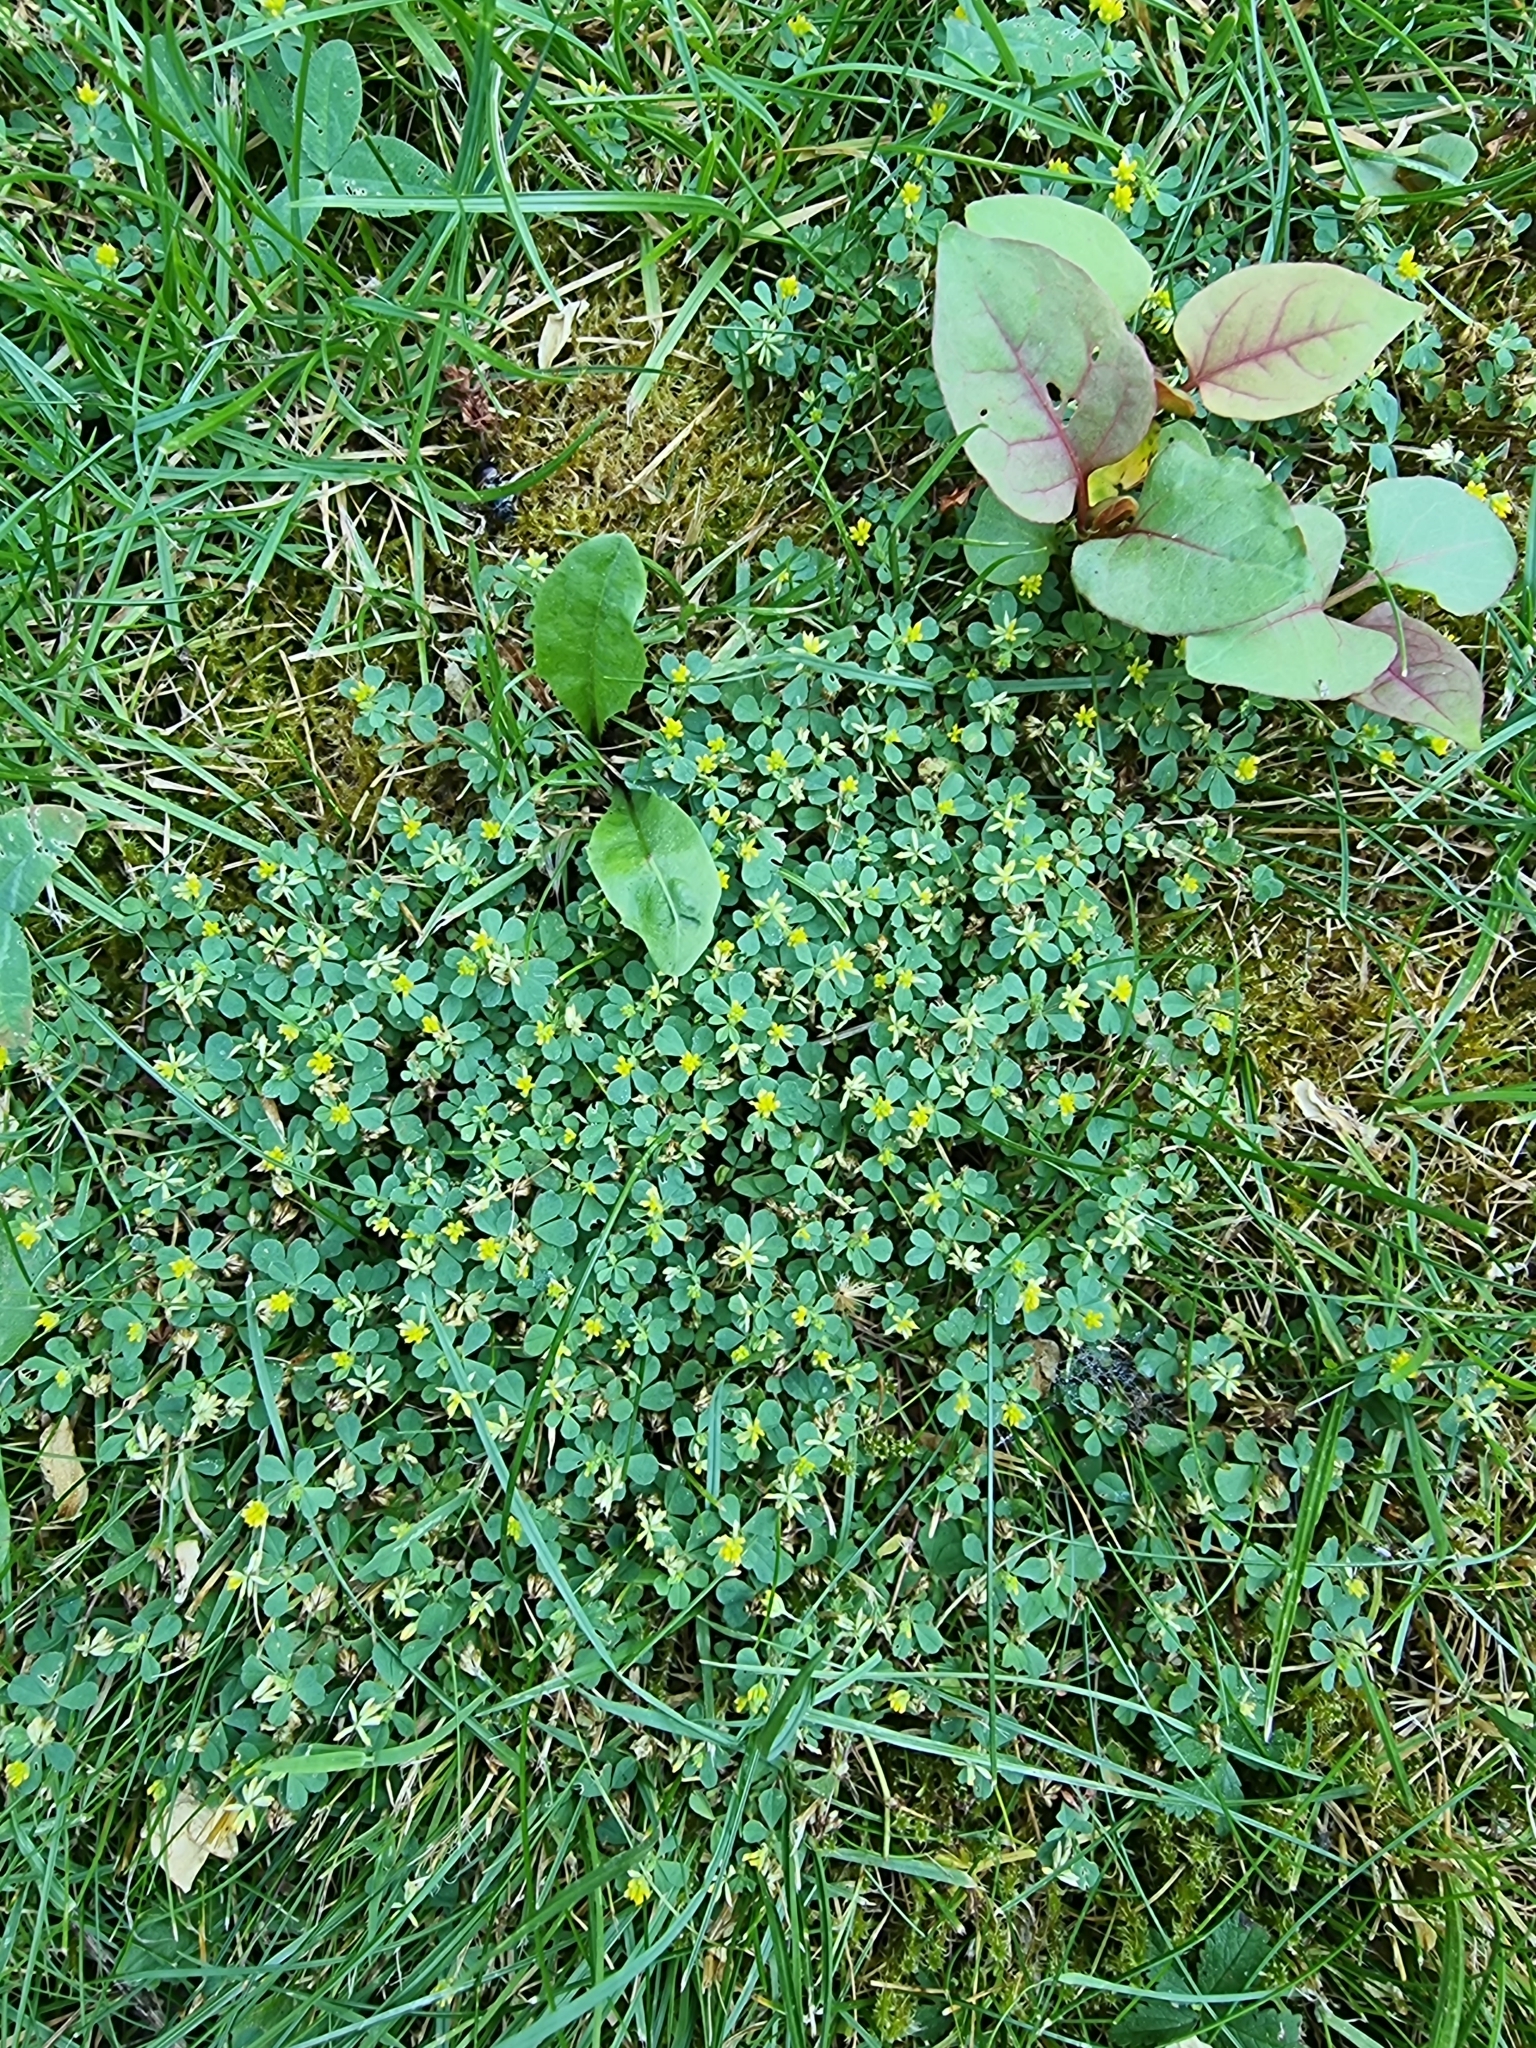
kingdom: Plantae
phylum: Tracheophyta
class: Magnoliopsida
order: Fabales
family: Fabaceae
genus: Trifolium
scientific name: Trifolium dubium
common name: Suckling clover
